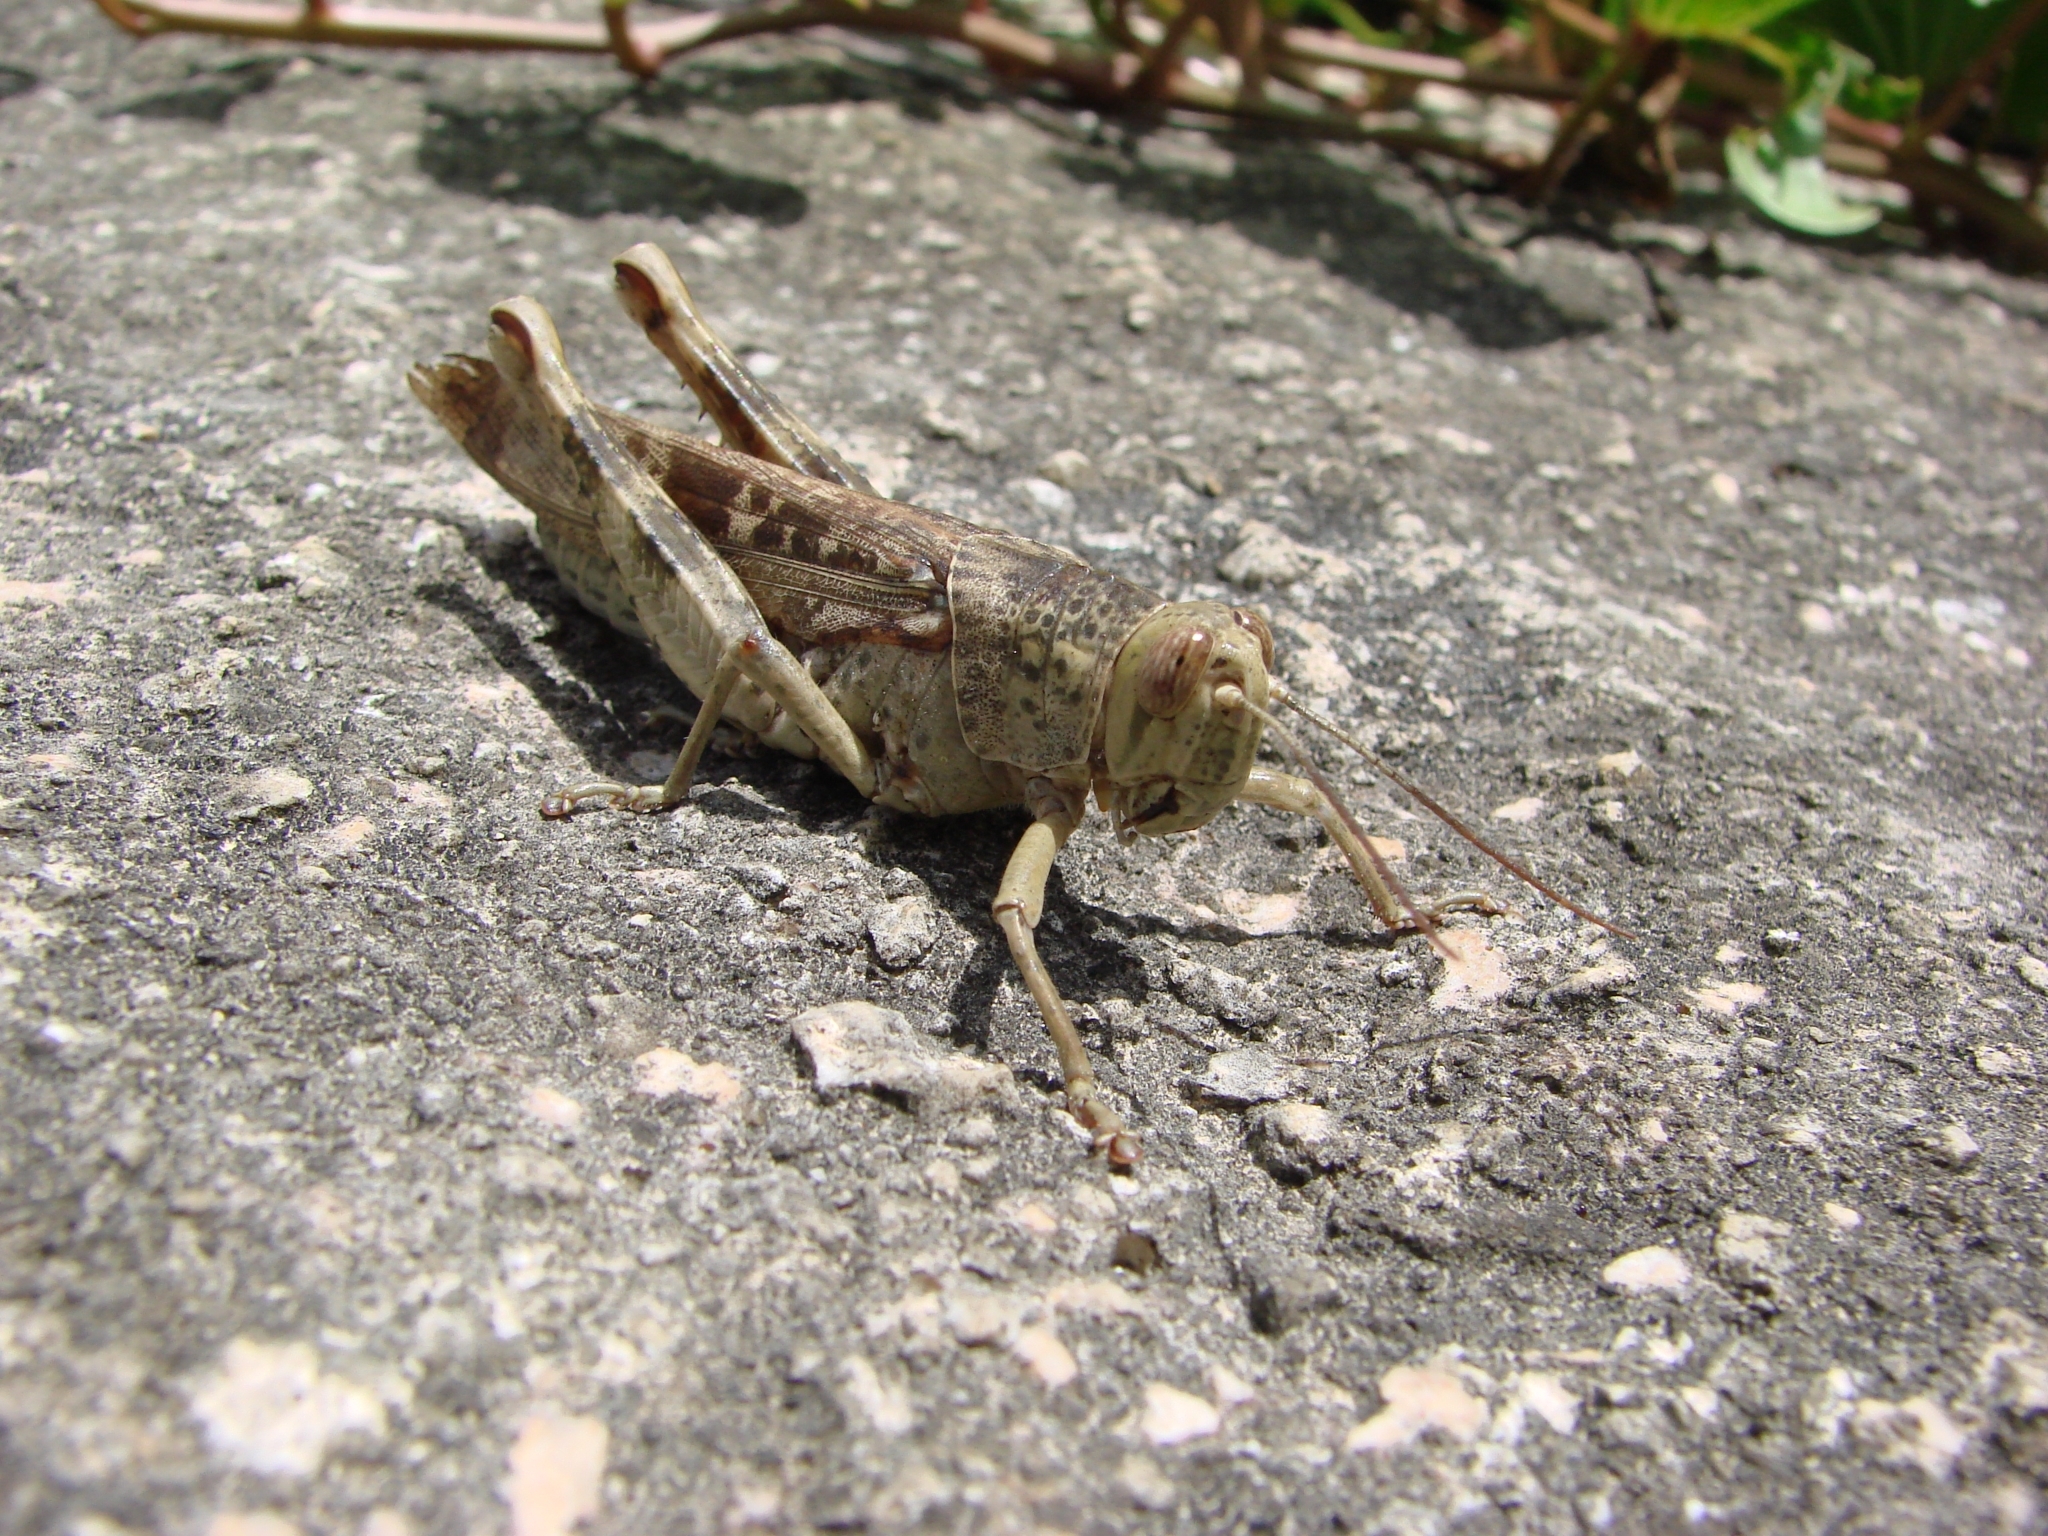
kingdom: Animalia
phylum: Arthropoda
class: Insecta
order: Orthoptera
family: Acrididae
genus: Valanga
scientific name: Valanga excavata
